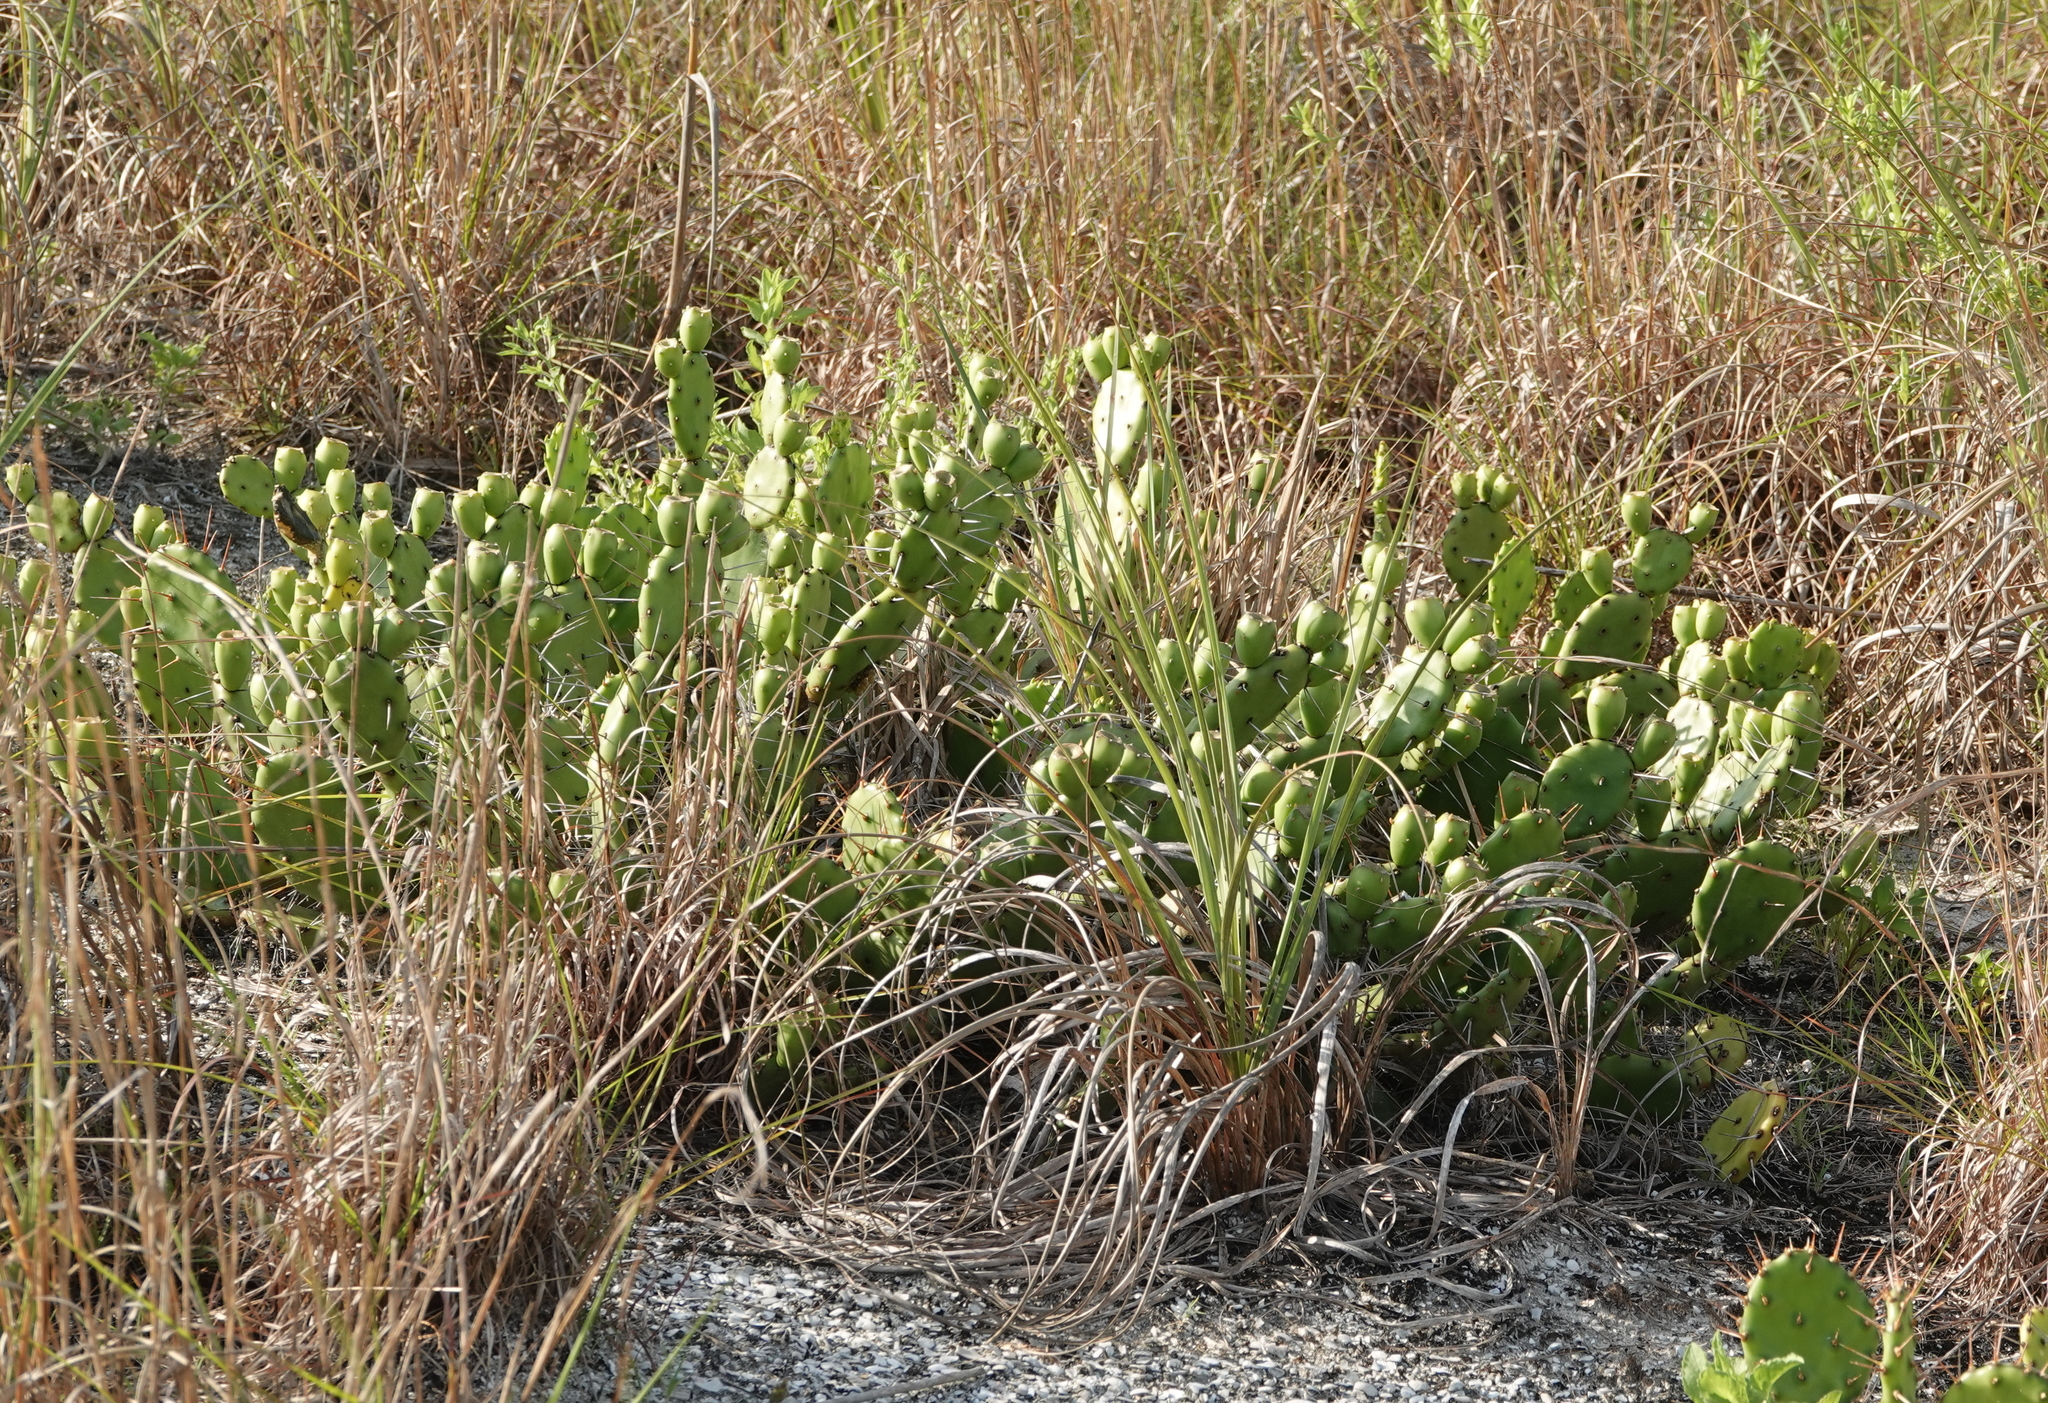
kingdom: Plantae
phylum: Tracheophyta
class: Magnoliopsida
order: Caryophyllales
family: Cactaceae
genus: Opuntia
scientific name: Opuntia humifusa
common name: Eastern prickly-pear
